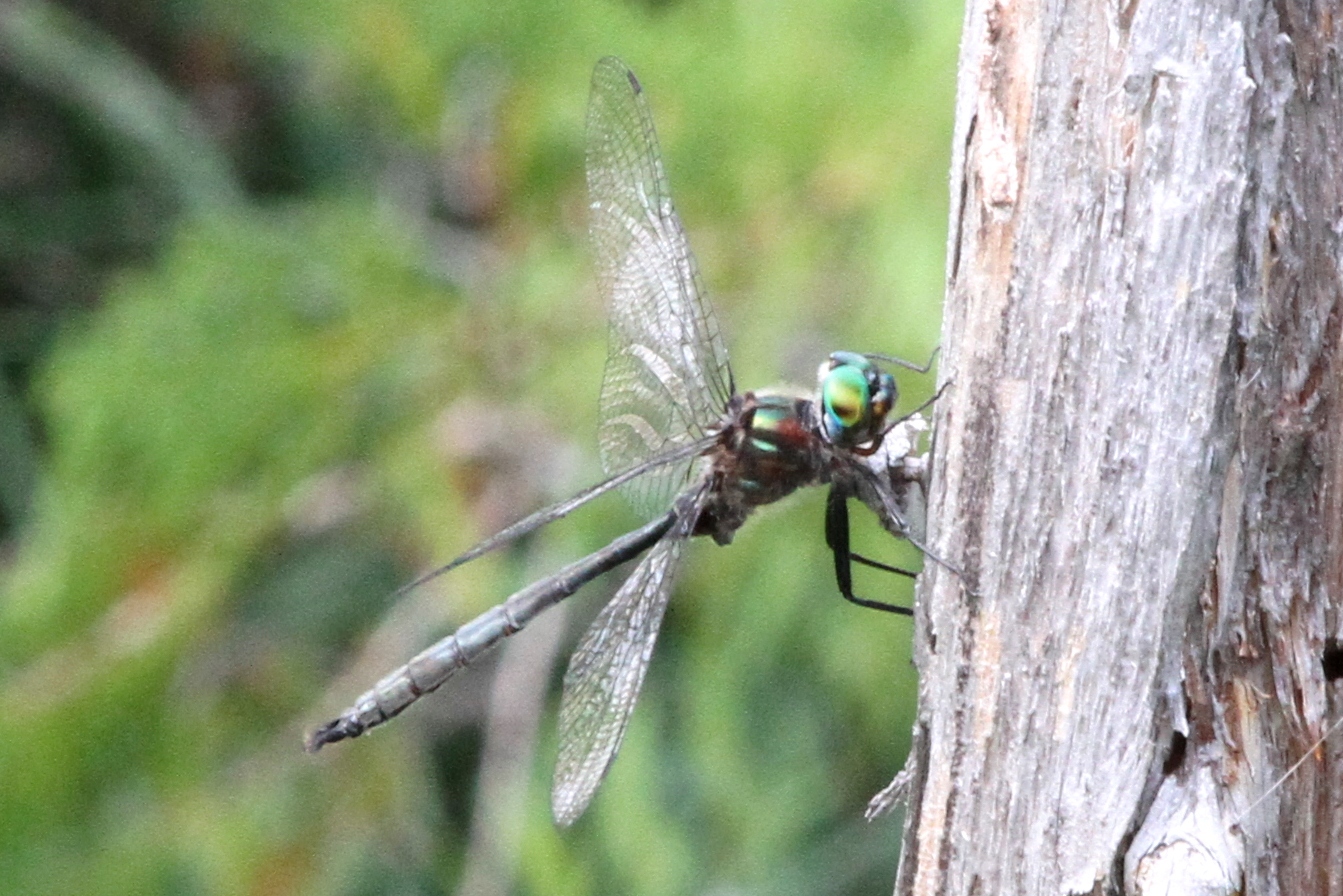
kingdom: Animalia
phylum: Arthropoda
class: Insecta
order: Odonata
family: Corduliidae
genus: Somatochlora
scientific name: Somatochlora williamsoni
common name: Williamson's emerald
